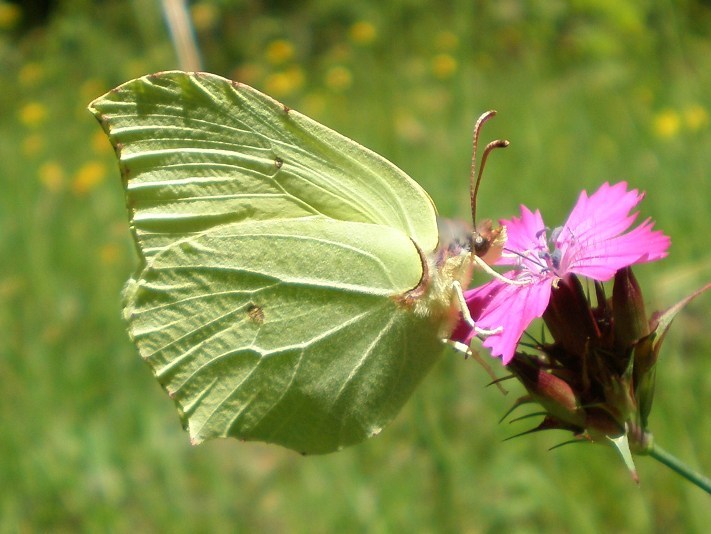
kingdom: Animalia
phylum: Arthropoda
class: Insecta
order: Lepidoptera
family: Pieridae
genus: Gonepteryx
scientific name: Gonepteryx rhamni
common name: Brimstone
